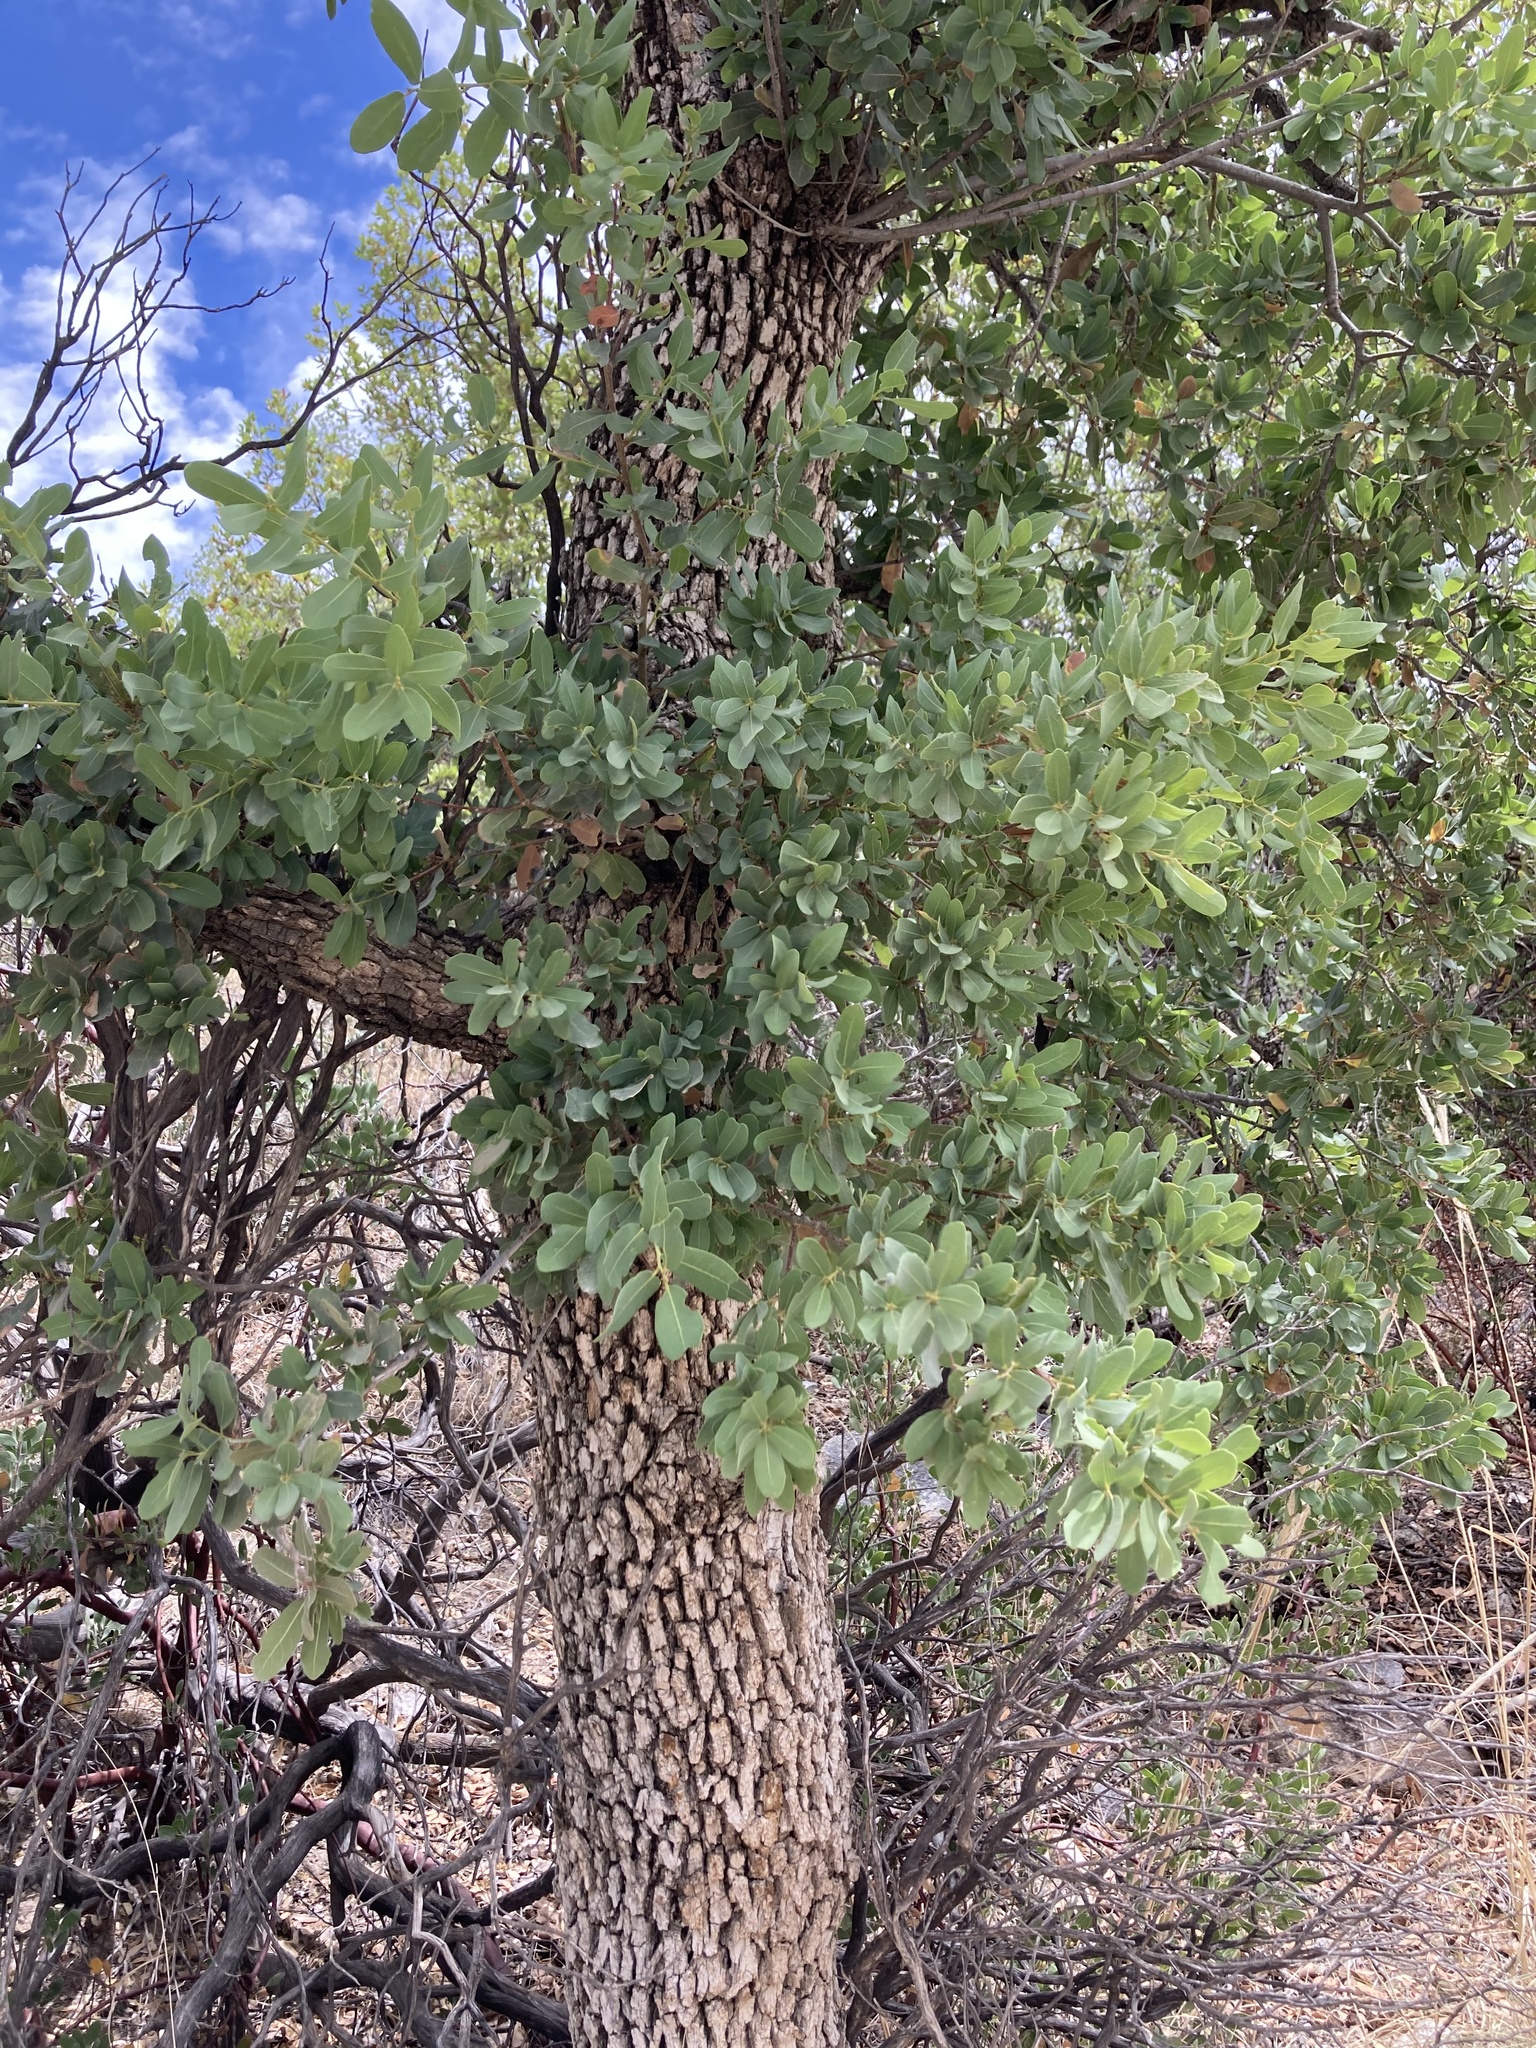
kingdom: Plantae
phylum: Tracheophyta
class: Magnoliopsida
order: Fagales
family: Fagaceae
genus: Quercus
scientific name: Quercus oblongifolia
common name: Mexican blue oak
